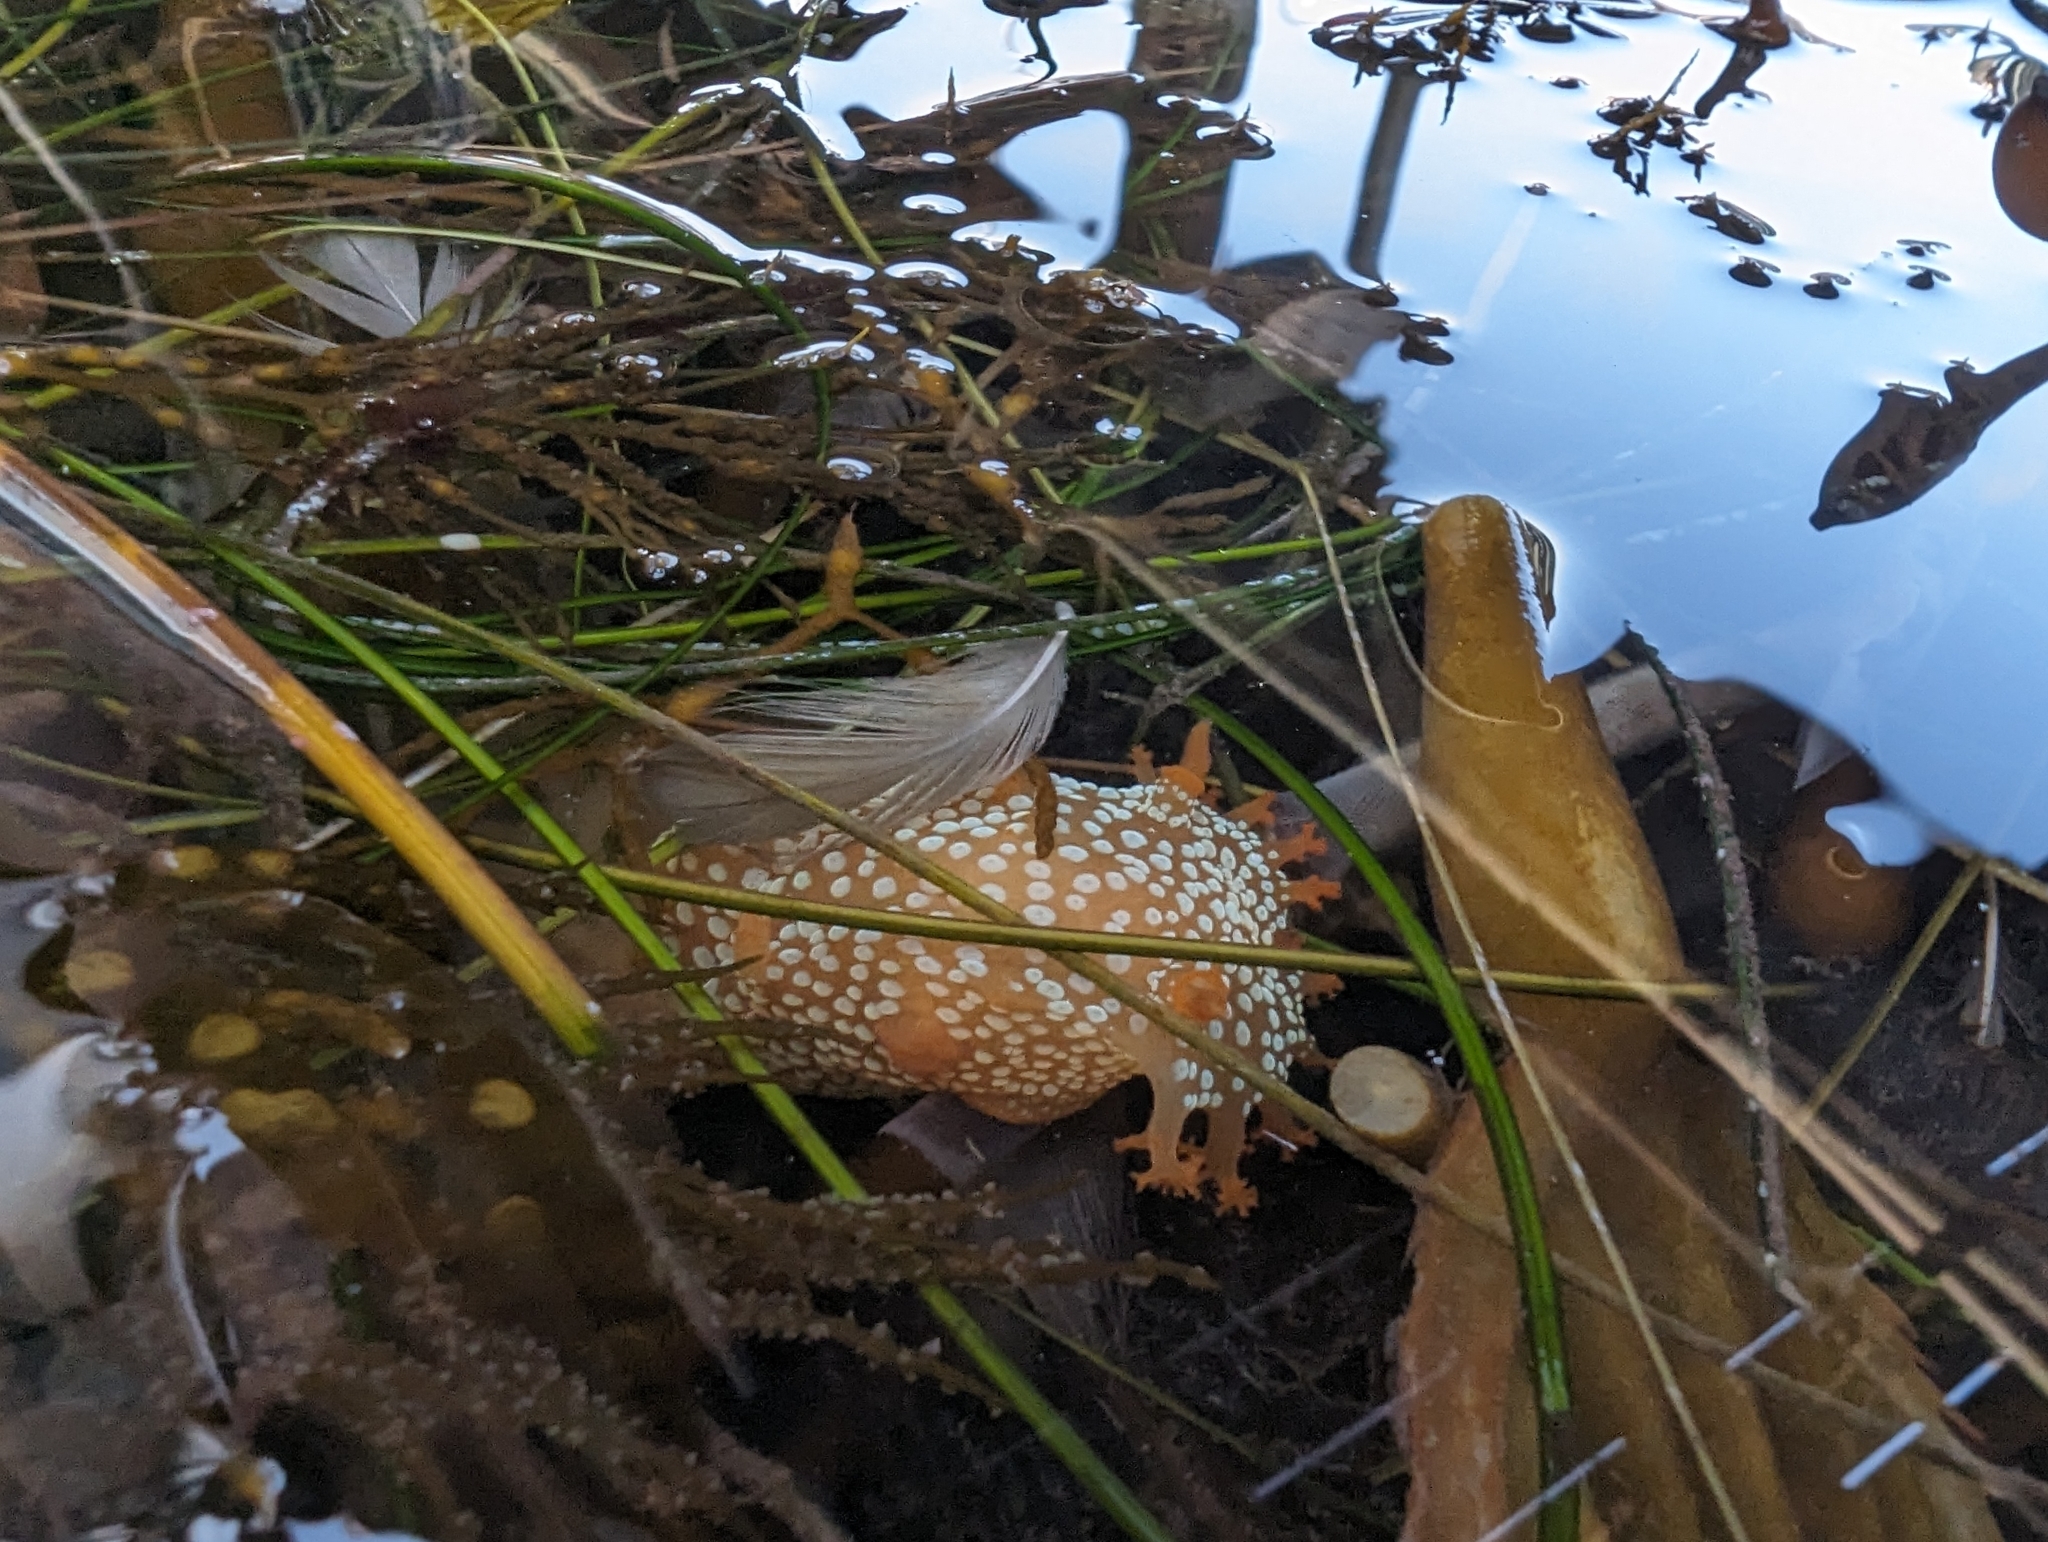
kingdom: Animalia
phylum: Mollusca
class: Gastropoda
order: Nudibranchia
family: Polyceridae
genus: Triopha
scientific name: Triopha maculata
